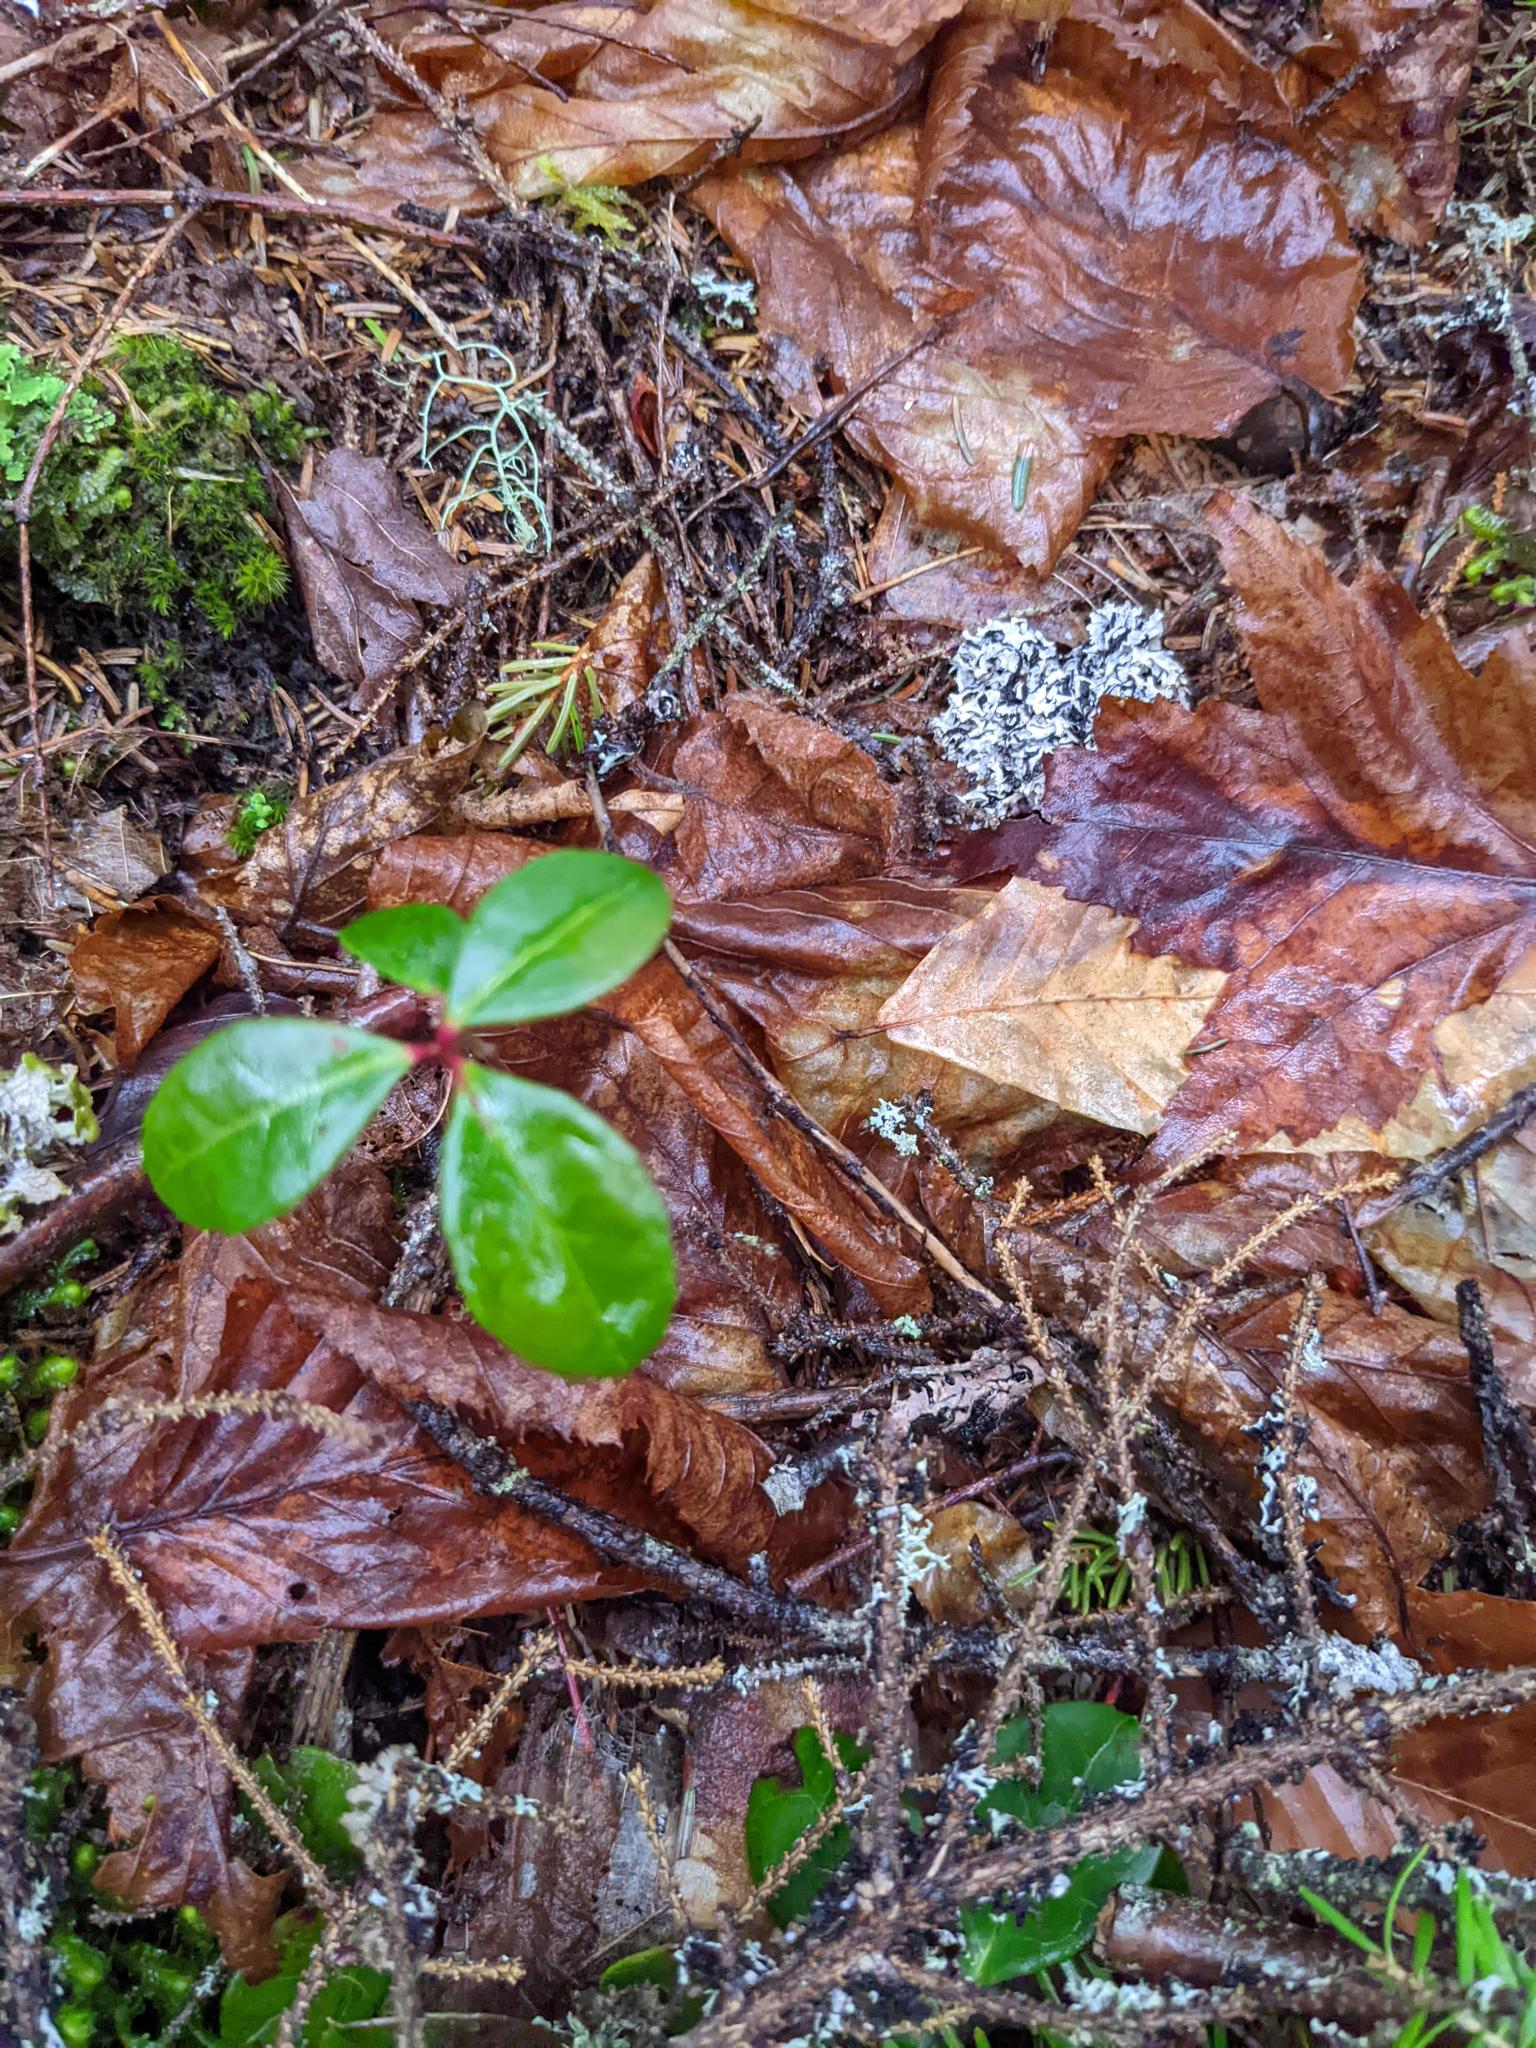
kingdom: Plantae
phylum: Tracheophyta
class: Magnoliopsida
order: Ericales
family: Ericaceae
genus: Gaultheria
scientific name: Gaultheria procumbens
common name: Checkerberry
